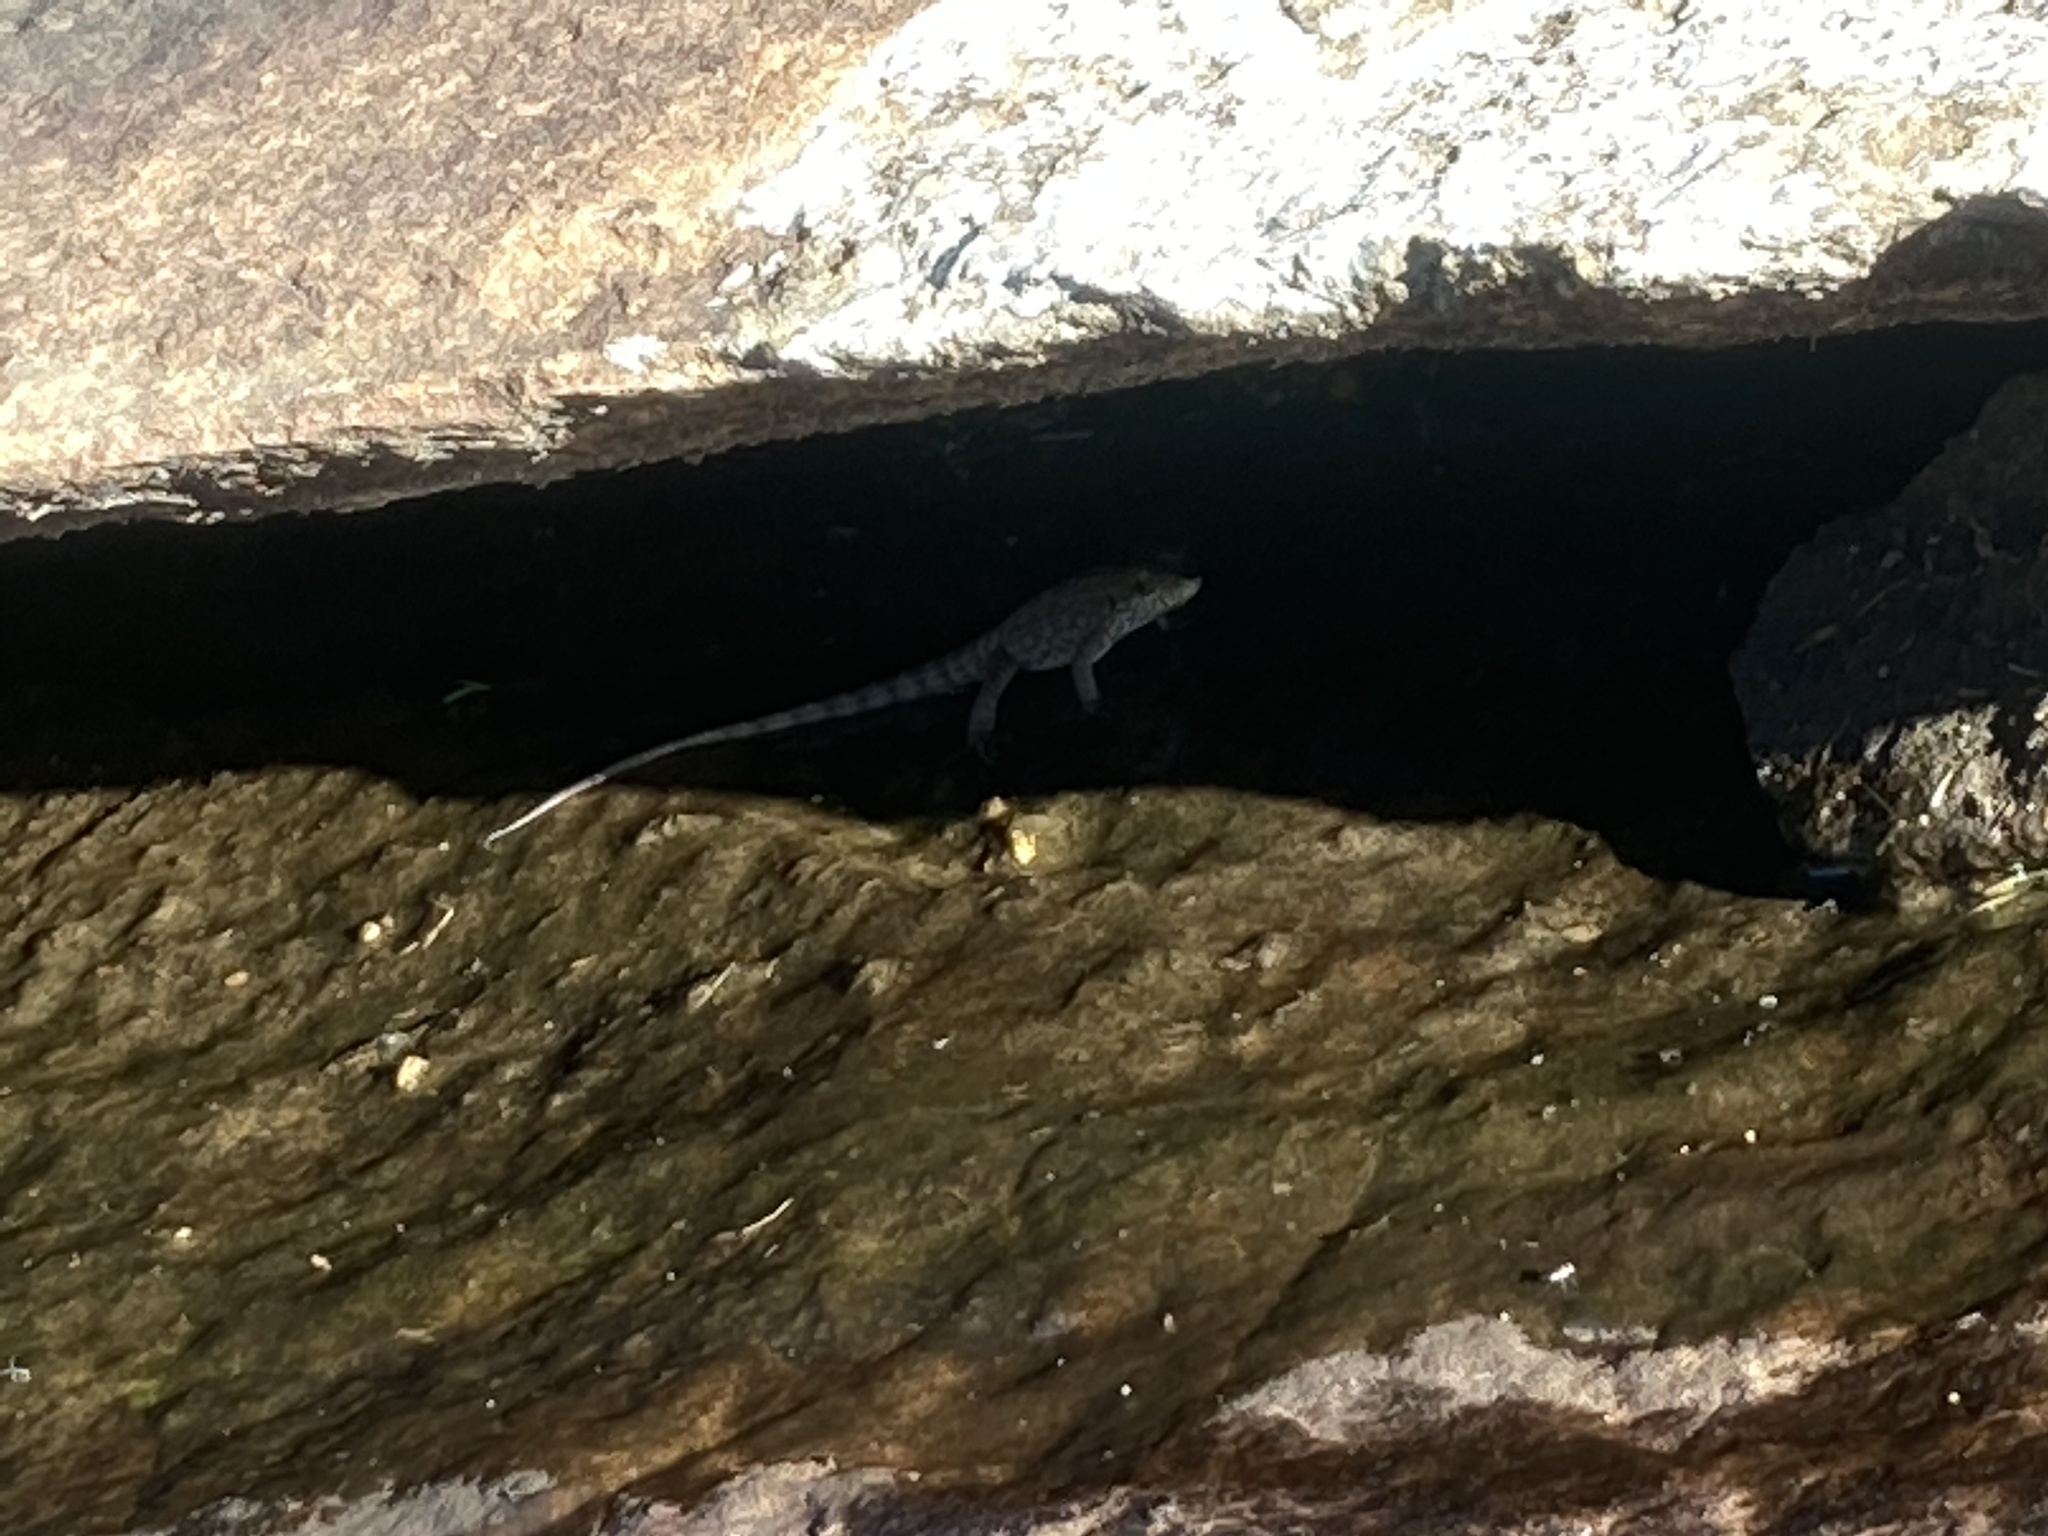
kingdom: Animalia
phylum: Chordata
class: Squamata
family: Cordylidae
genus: Pseudocordylus
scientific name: Pseudocordylus subviridis
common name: Drakensberg crag lizard
